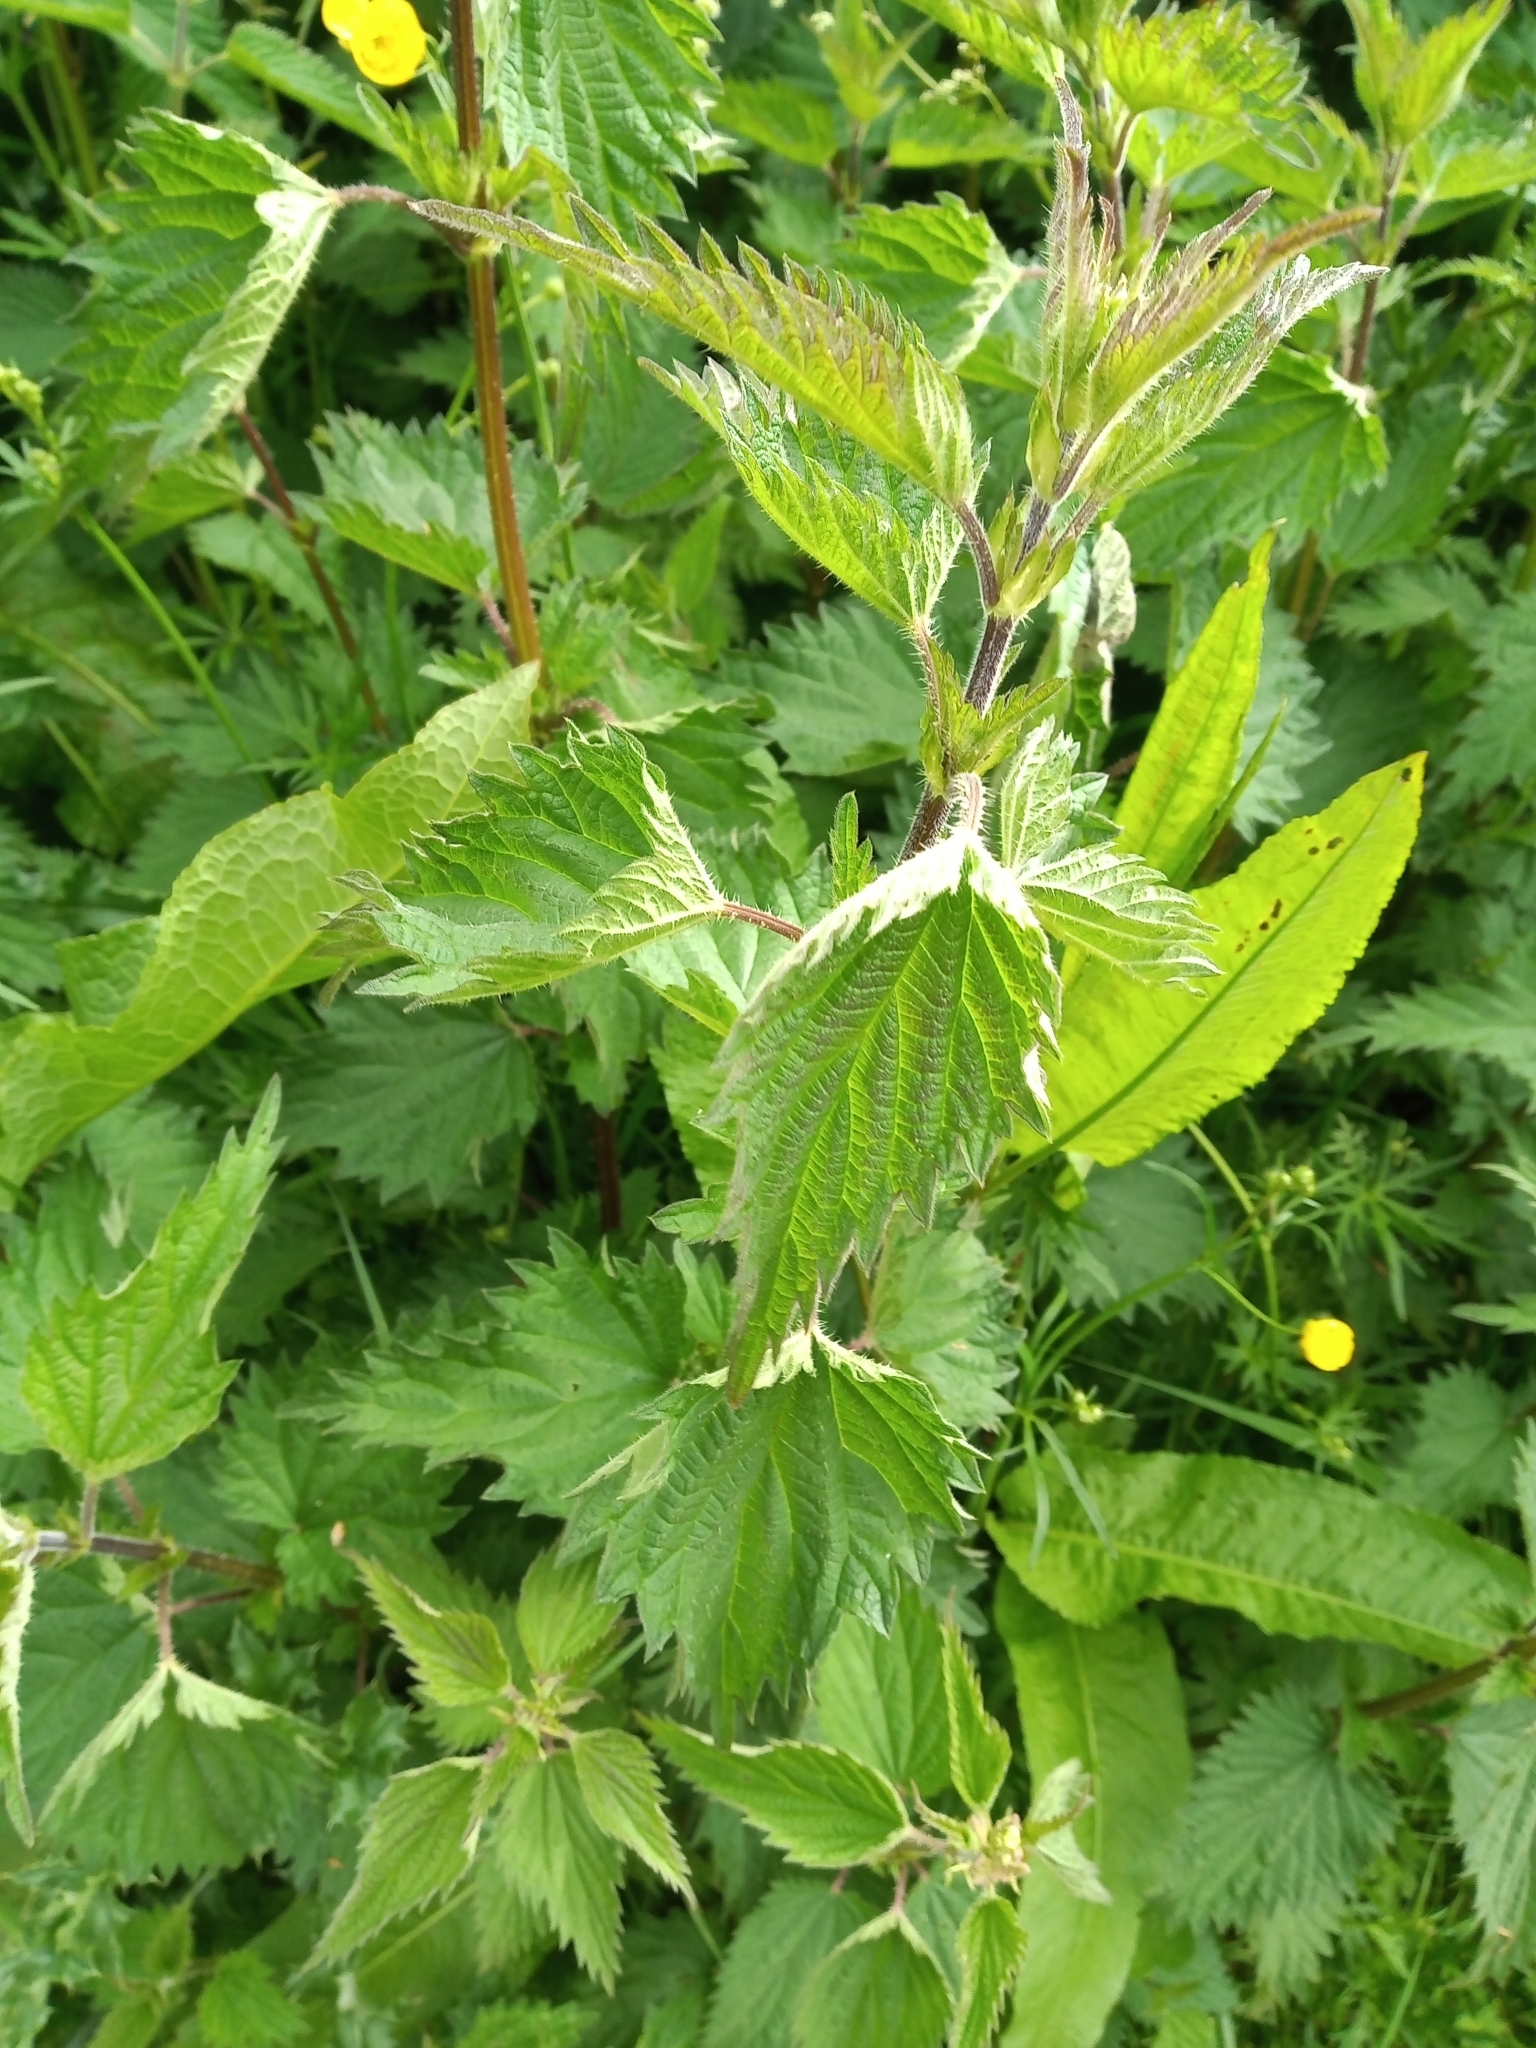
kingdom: Plantae
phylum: Tracheophyta
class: Magnoliopsida
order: Rosales
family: Urticaceae
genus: Urtica
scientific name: Urtica dioica
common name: Common nettle
